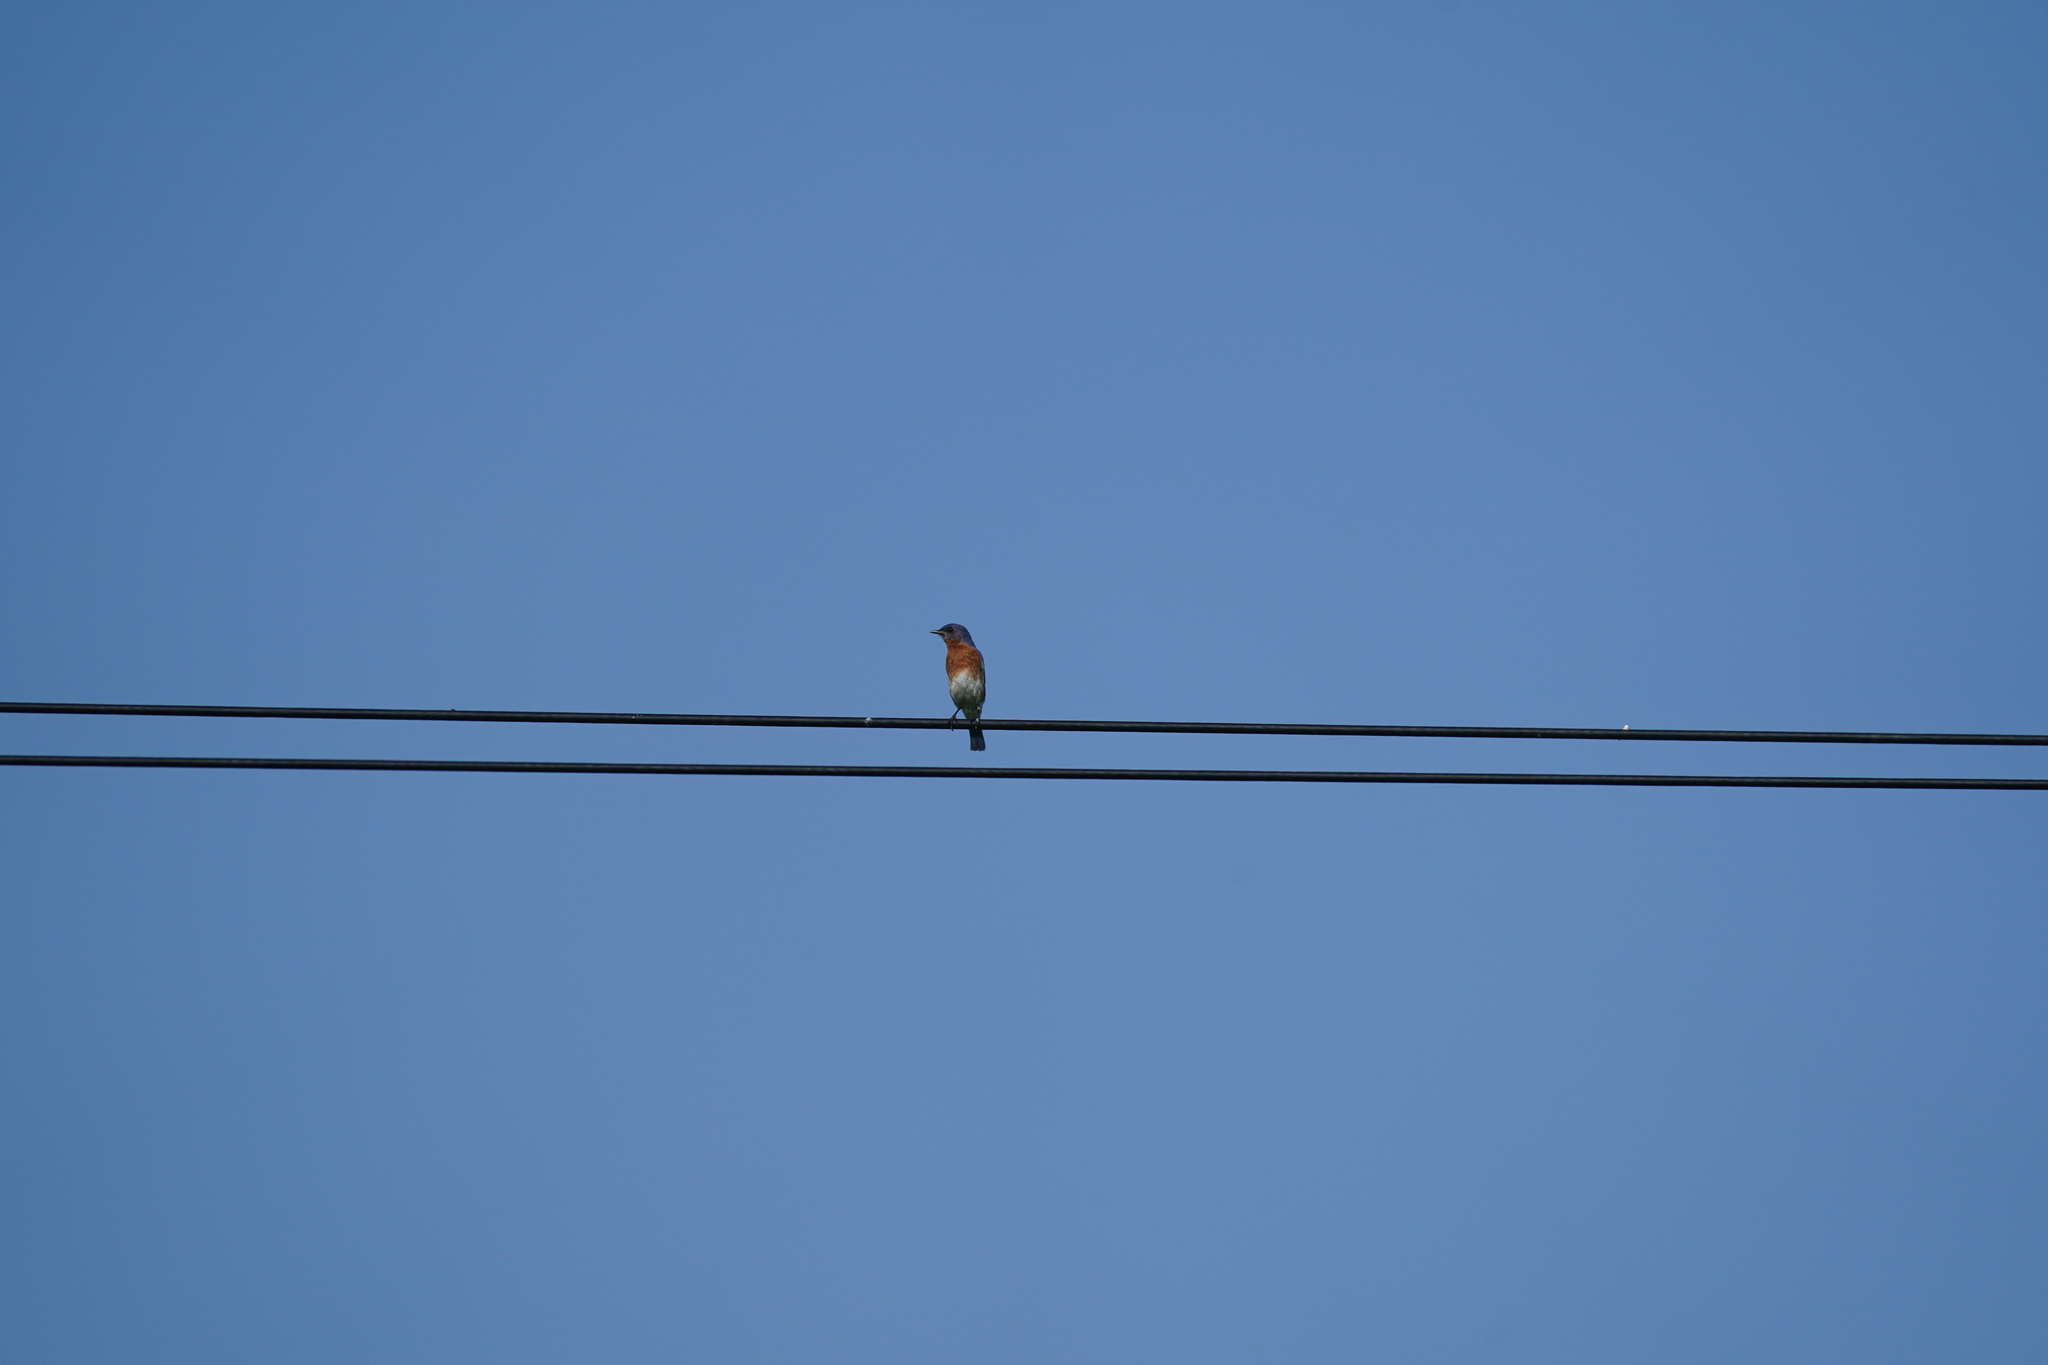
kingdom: Animalia
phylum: Chordata
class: Aves
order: Passeriformes
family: Turdidae
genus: Sialia
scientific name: Sialia sialis
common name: Eastern bluebird
